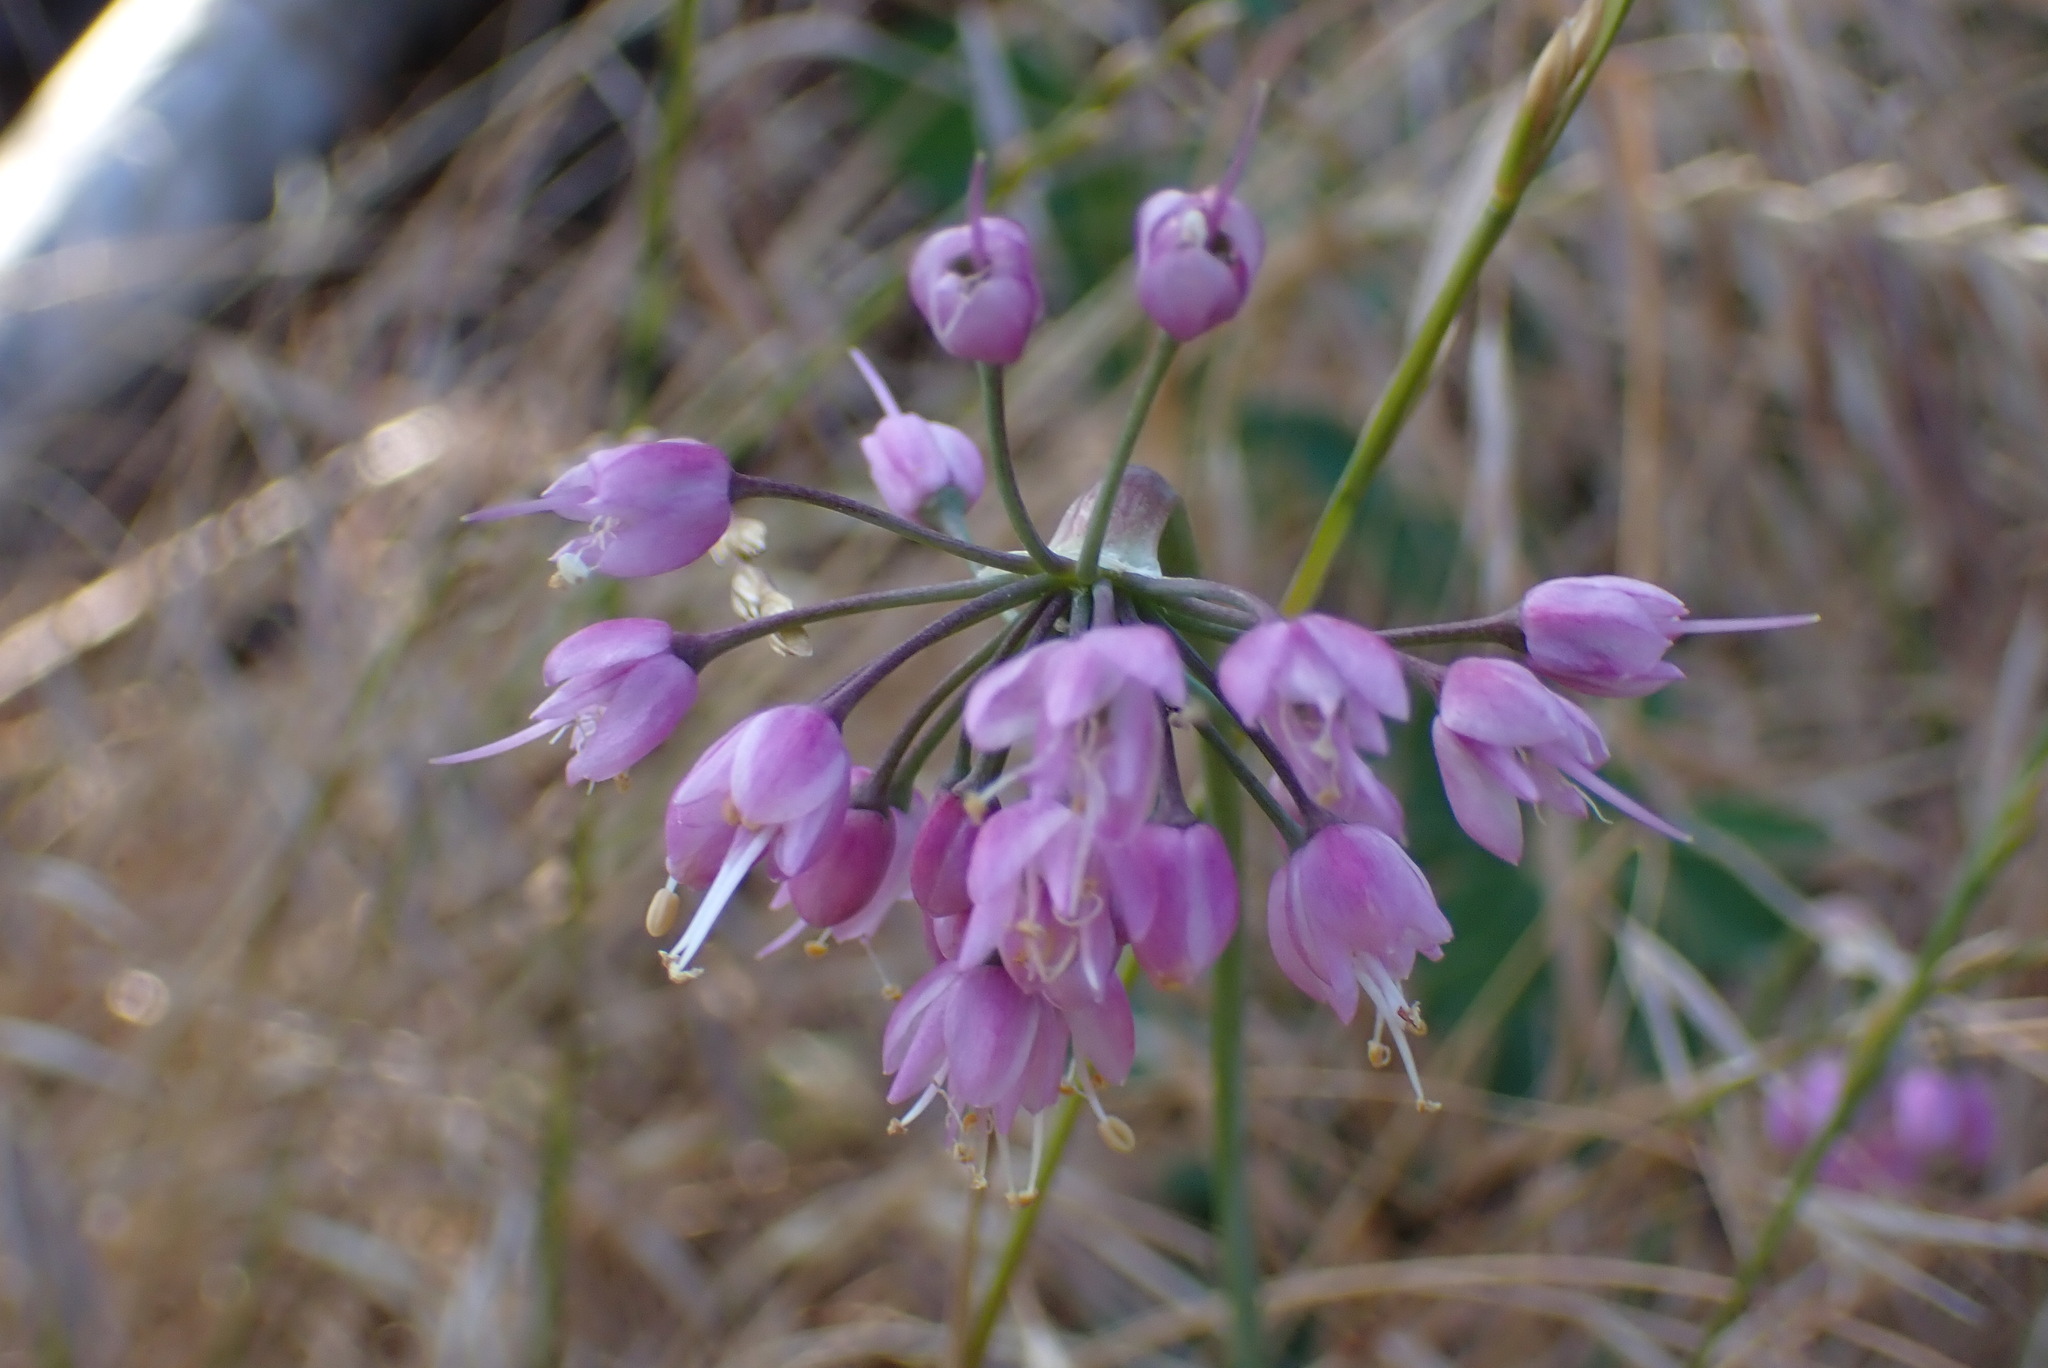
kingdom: Plantae
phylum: Tracheophyta
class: Liliopsida
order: Asparagales
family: Amaryllidaceae
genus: Allium
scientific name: Allium cernuum
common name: Nodding onion
